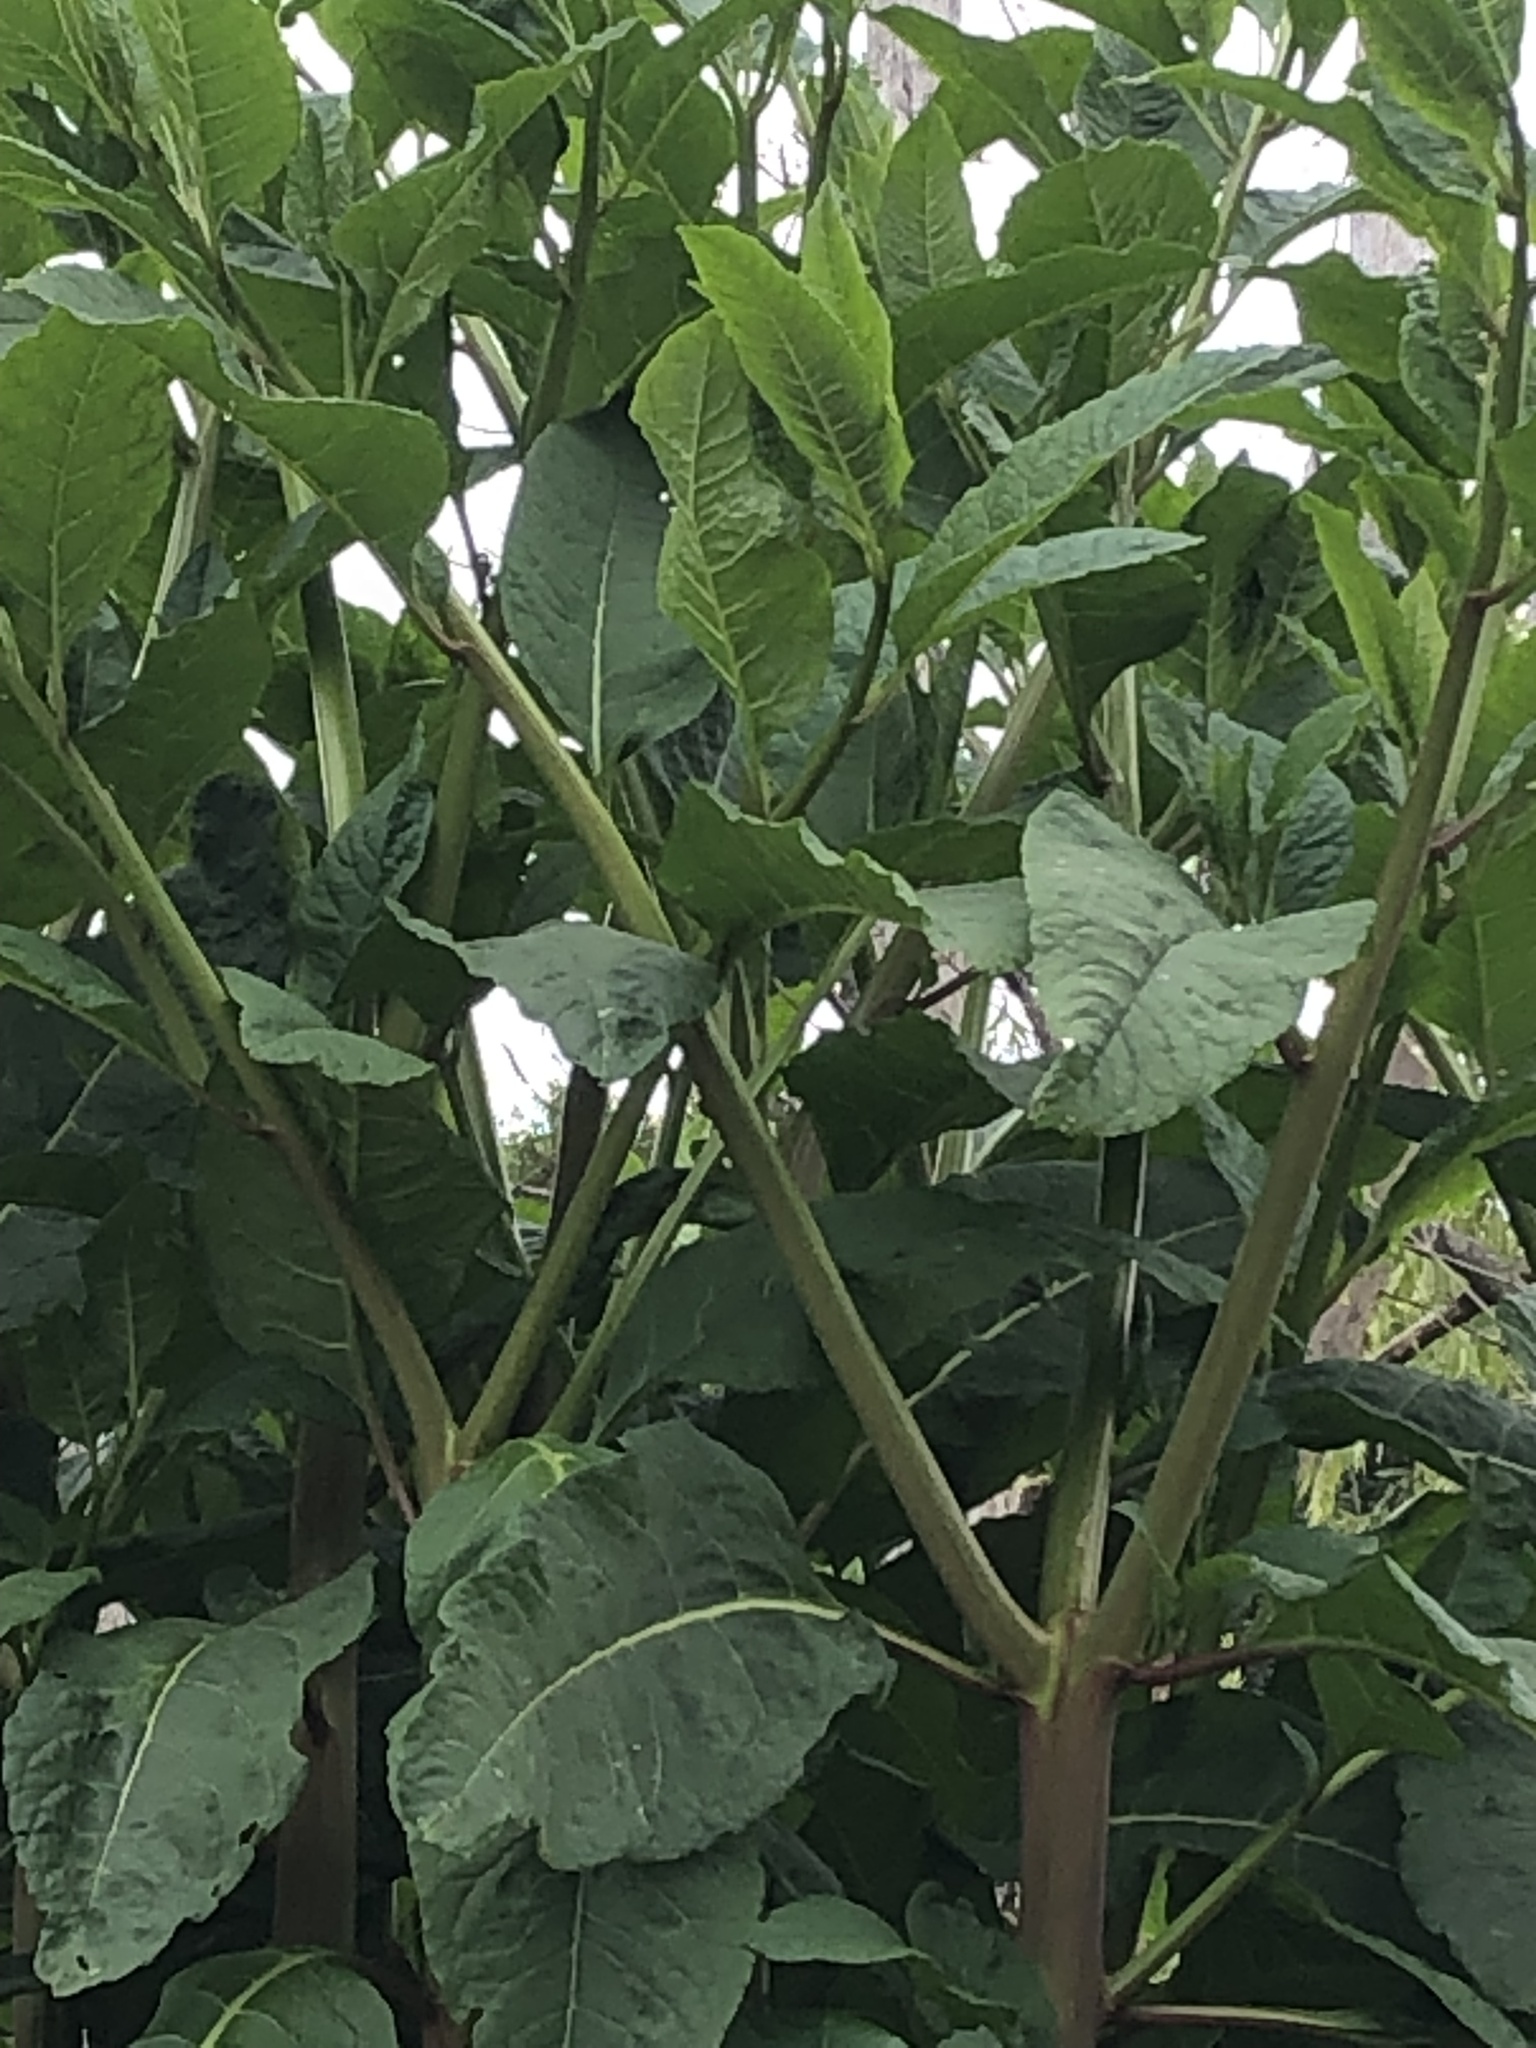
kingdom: Plantae
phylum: Tracheophyta
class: Magnoliopsida
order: Caryophyllales
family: Phytolaccaceae
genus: Phytolacca
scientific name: Phytolacca americana
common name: American pokeweed
